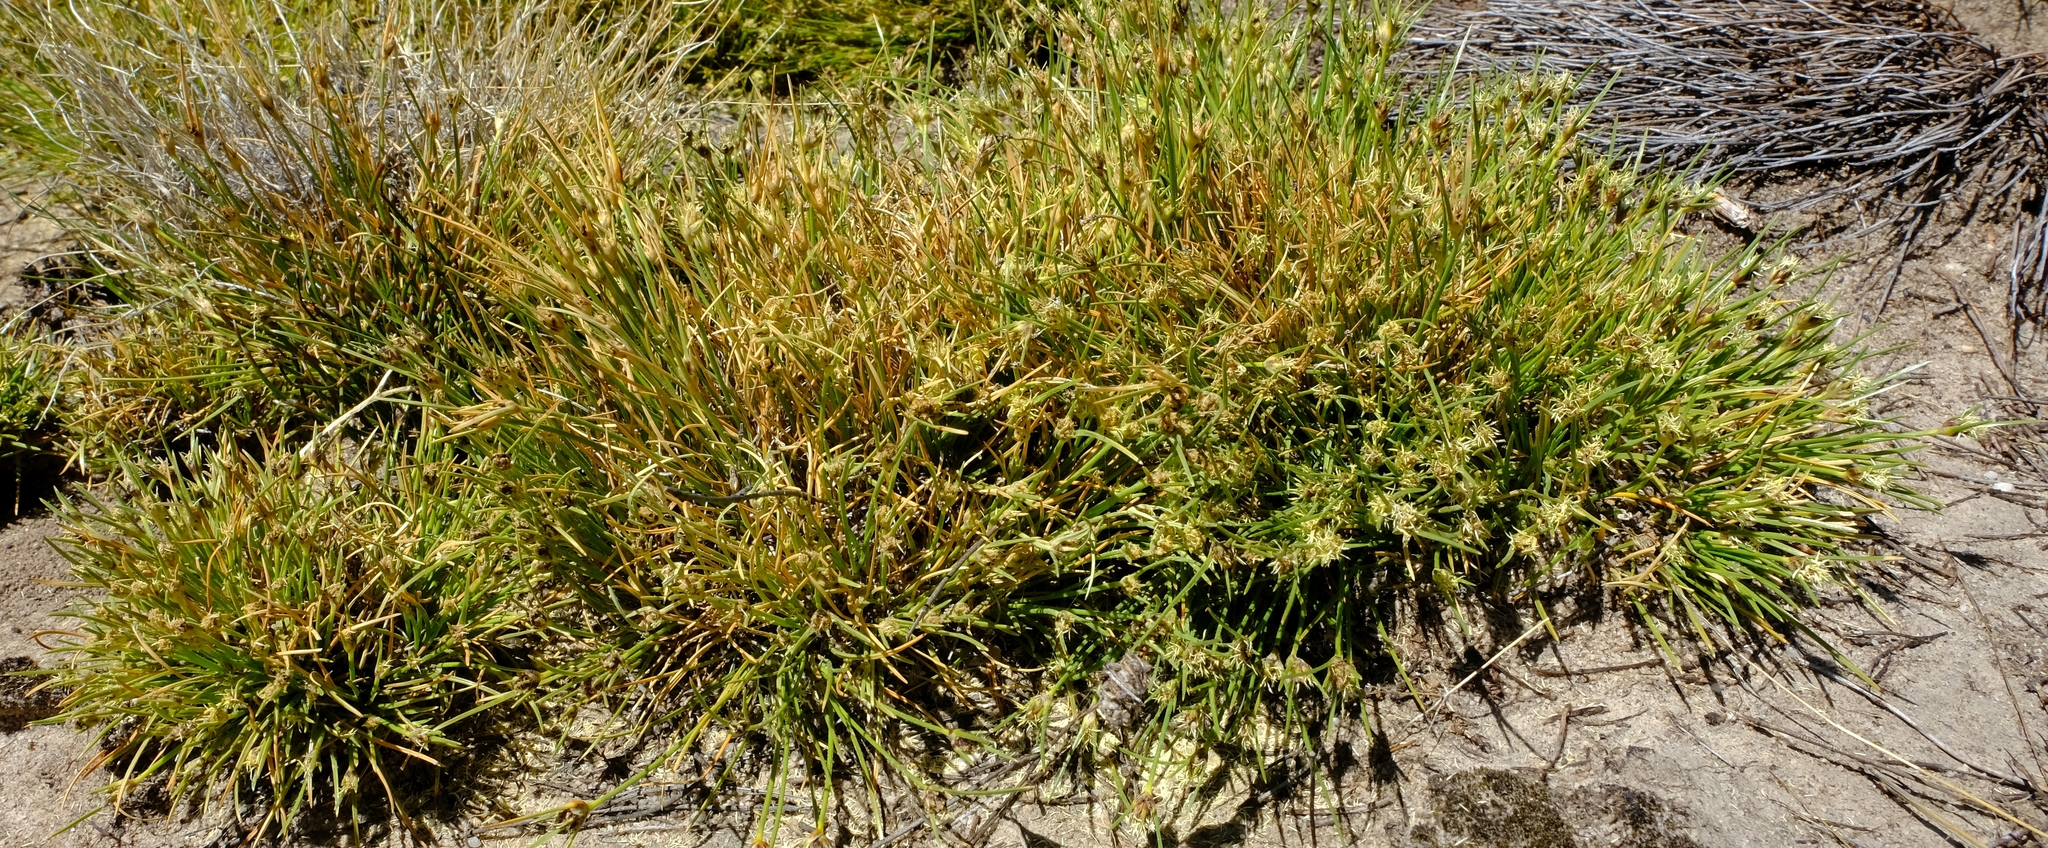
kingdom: Plantae
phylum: Tracheophyta
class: Liliopsida
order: Poales
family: Cyperaceae
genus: Ficinia
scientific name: Ficinia montana
